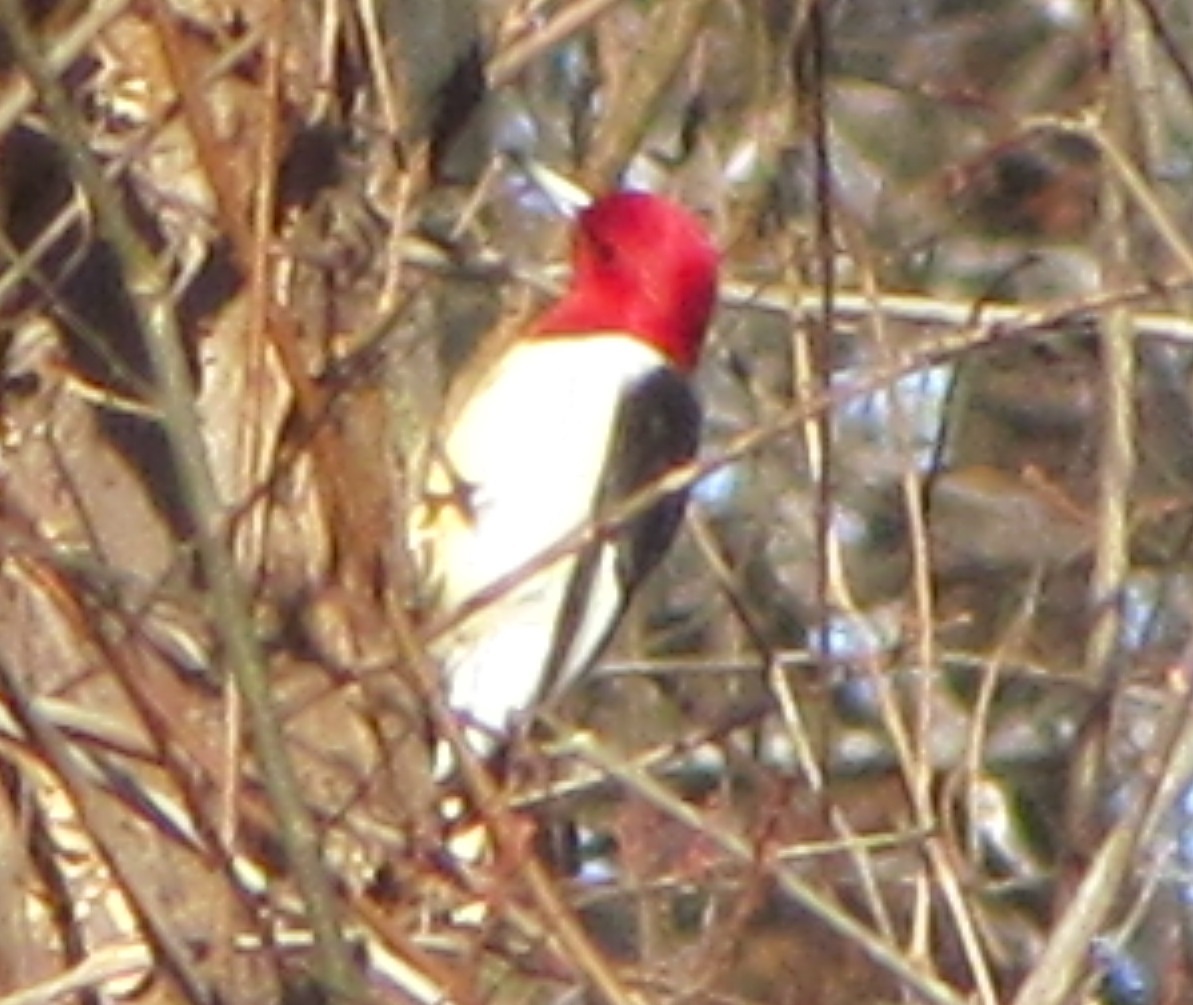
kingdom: Animalia
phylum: Chordata
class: Aves
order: Piciformes
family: Picidae
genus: Melanerpes
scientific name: Melanerpes erythrocephalus
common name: Red-headed woodpecker
